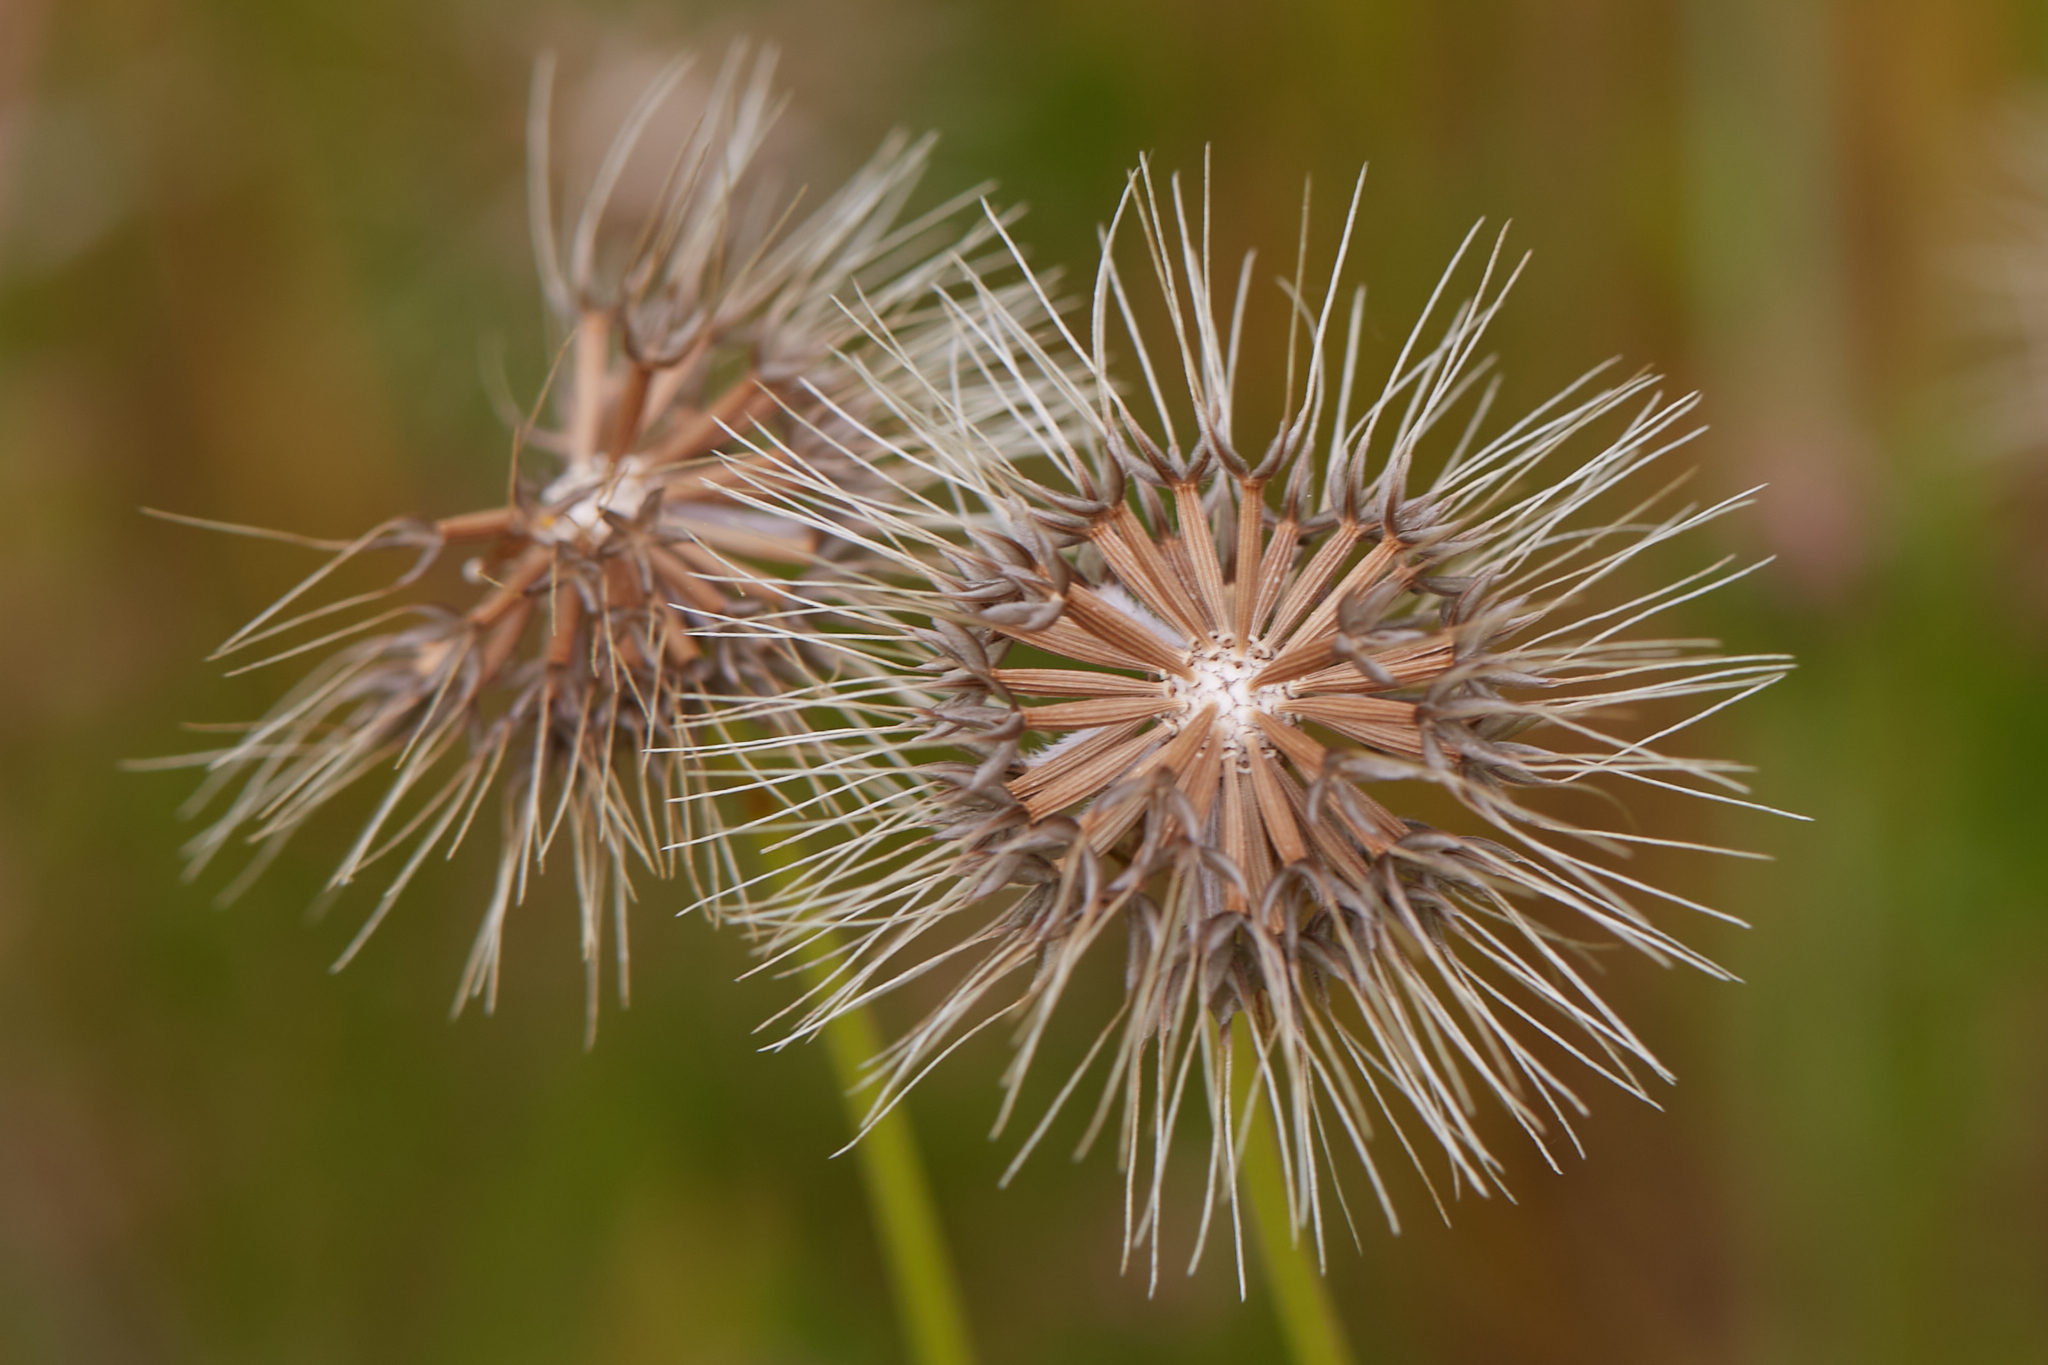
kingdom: Plantae
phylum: Tracheophyta
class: Magnoliopsida
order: Asterales
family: Asteraceae
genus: Microseris
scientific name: Microseris douglasii
